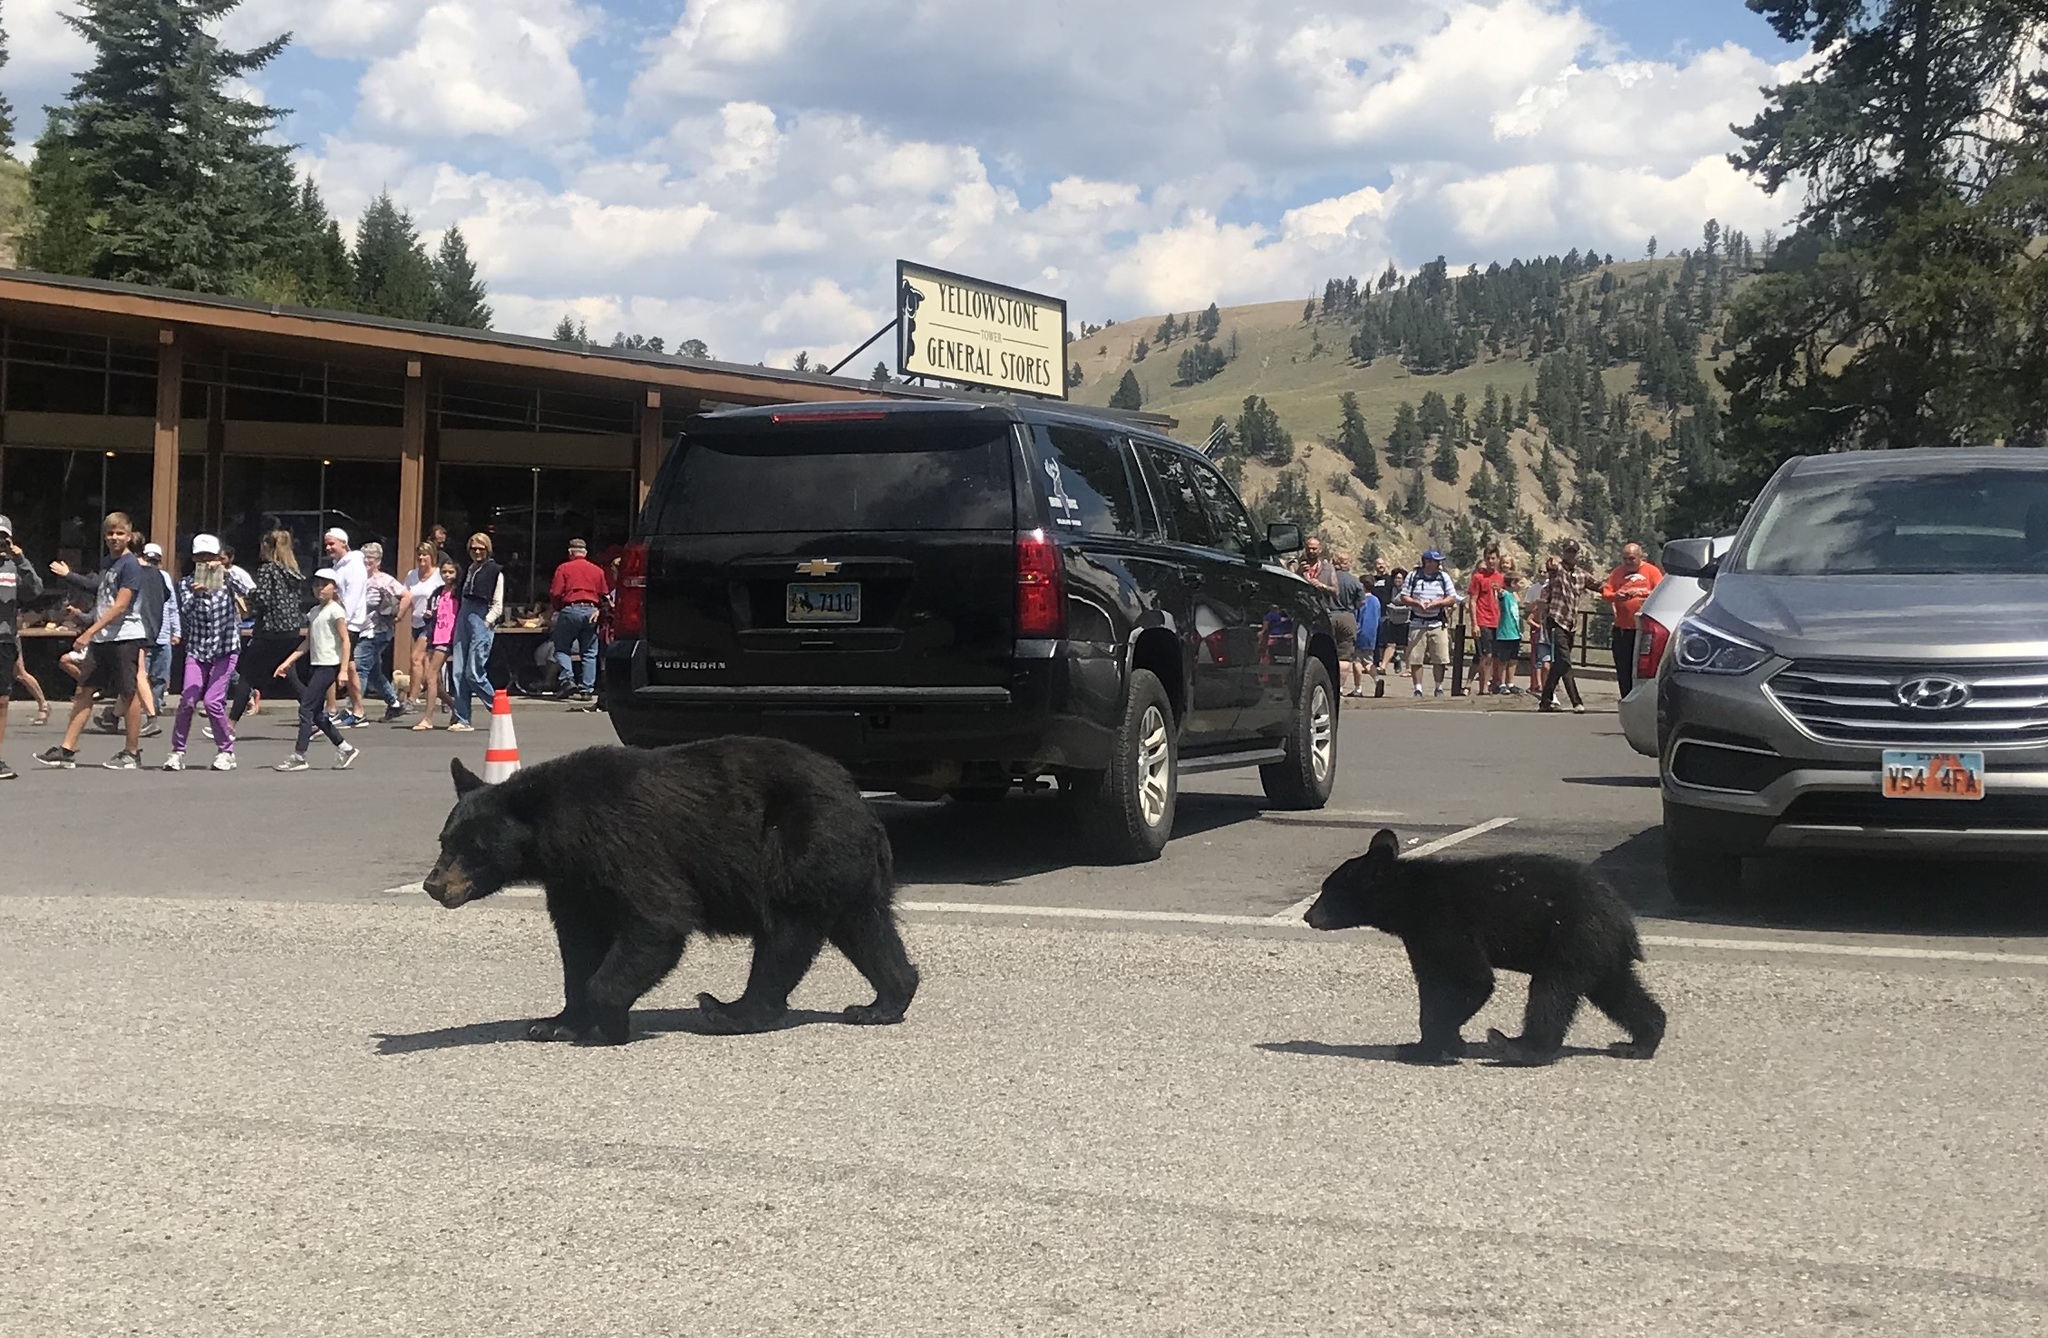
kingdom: Animalia
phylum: Chordata
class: Mammalia
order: Carnivora
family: Ursidae
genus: Ursus
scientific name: Ursus americanus
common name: American black bear
